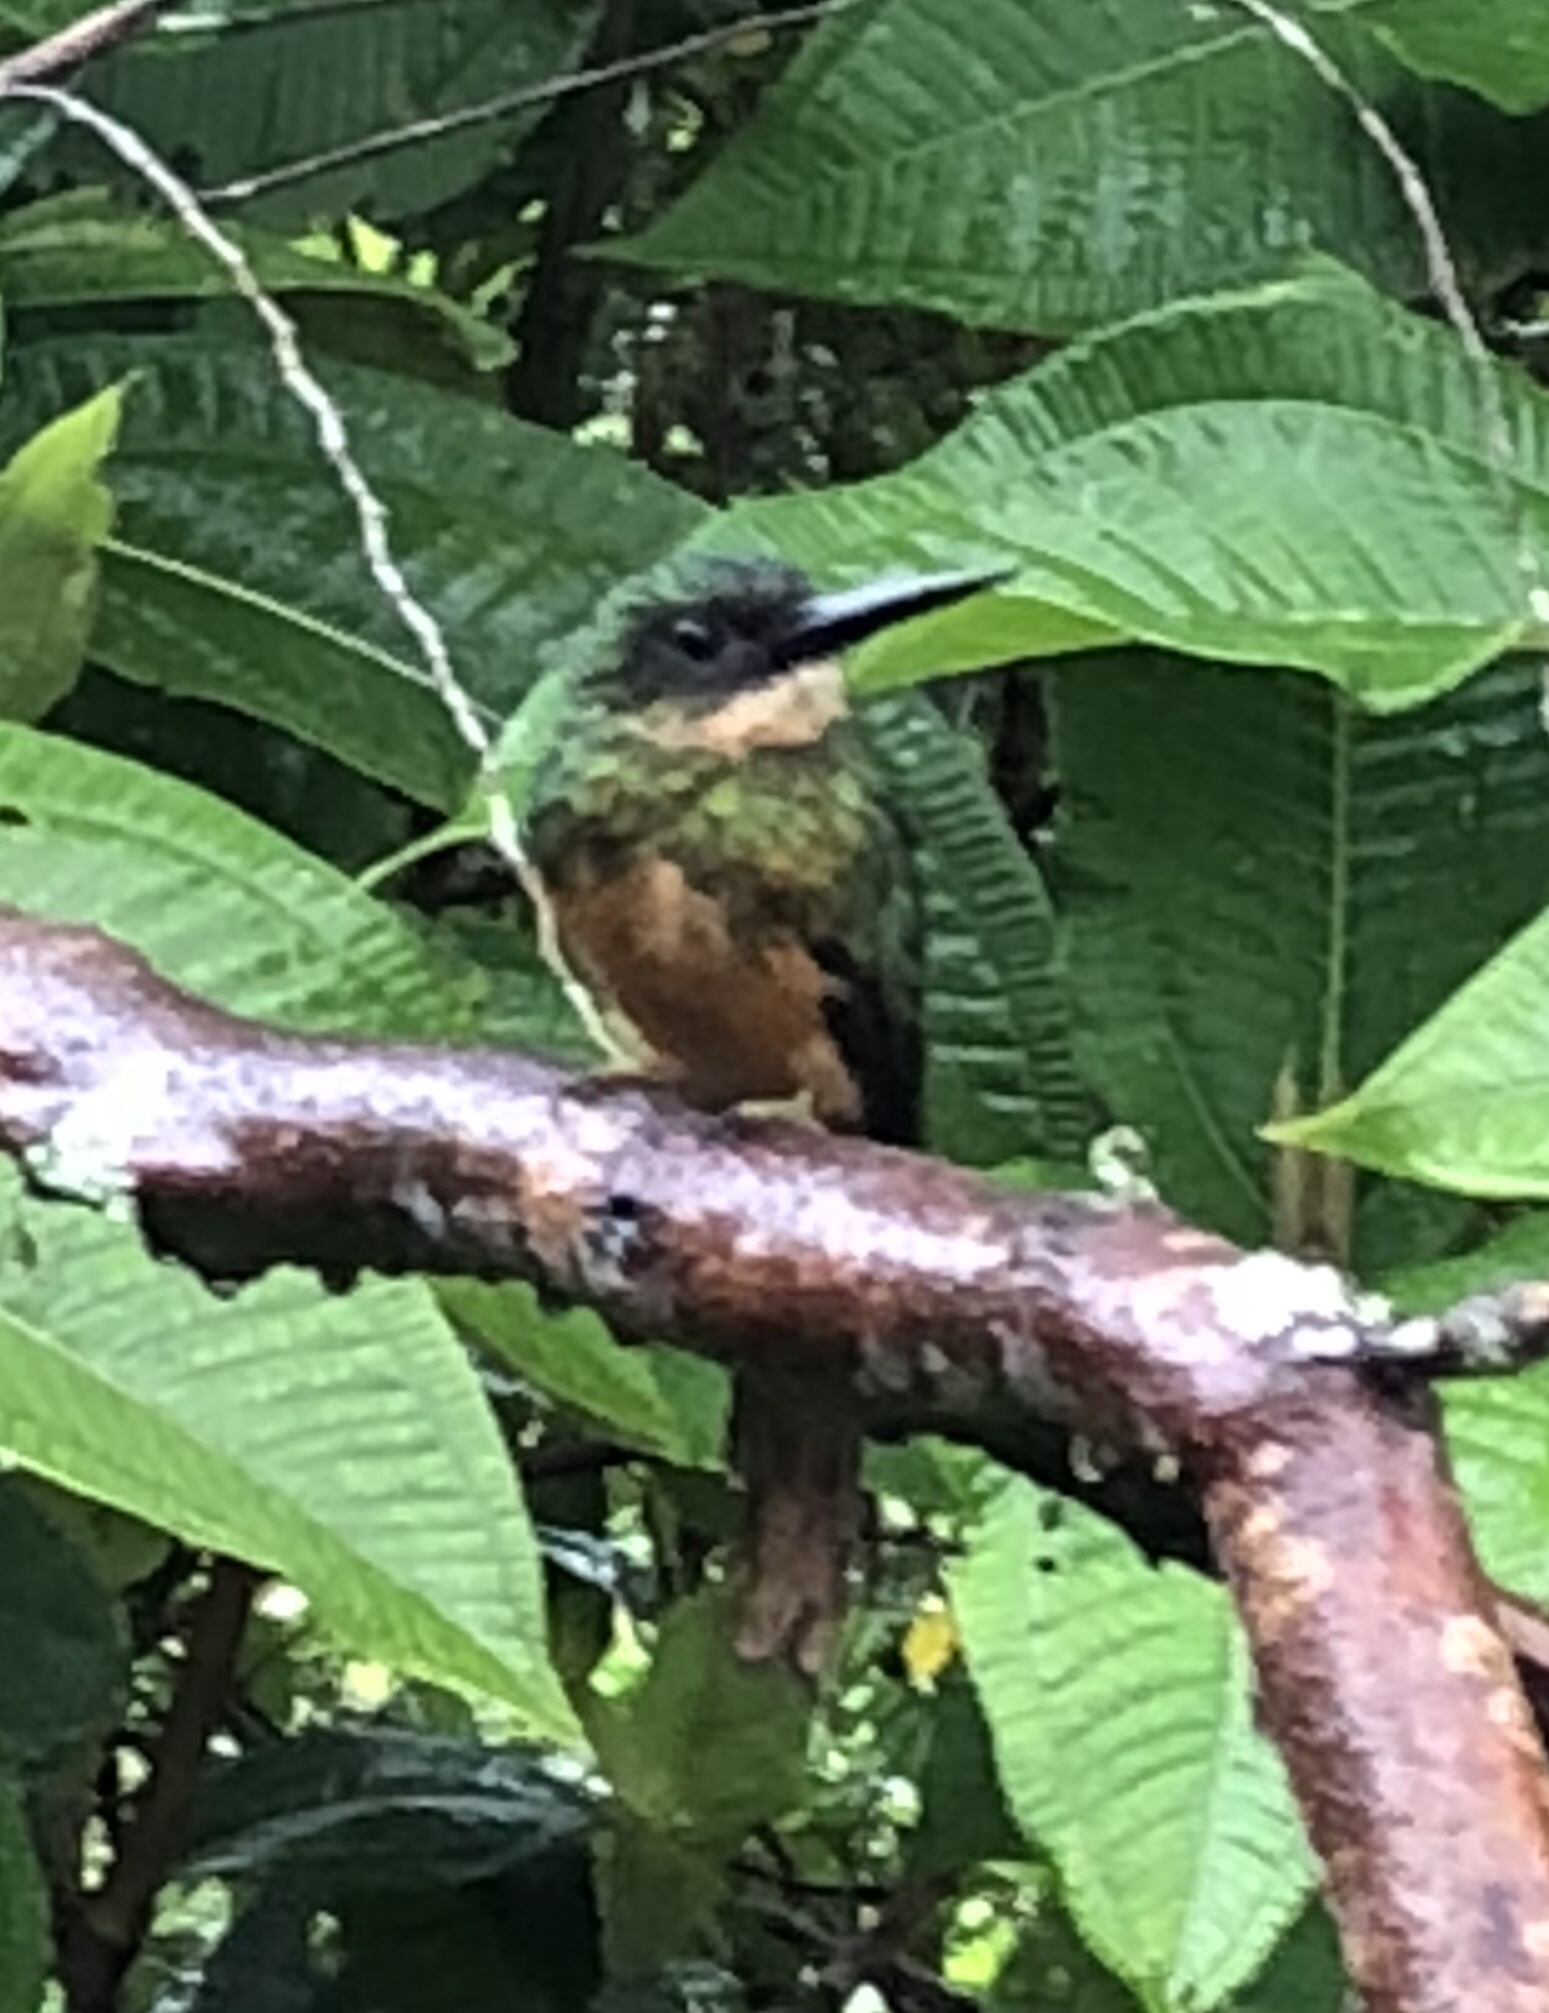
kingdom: Animalia
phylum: Chordata
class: Aves
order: Piciformes
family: Galbulidae
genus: Galbula
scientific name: Galbula ruficauda
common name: Rufous-tailed jacamar
